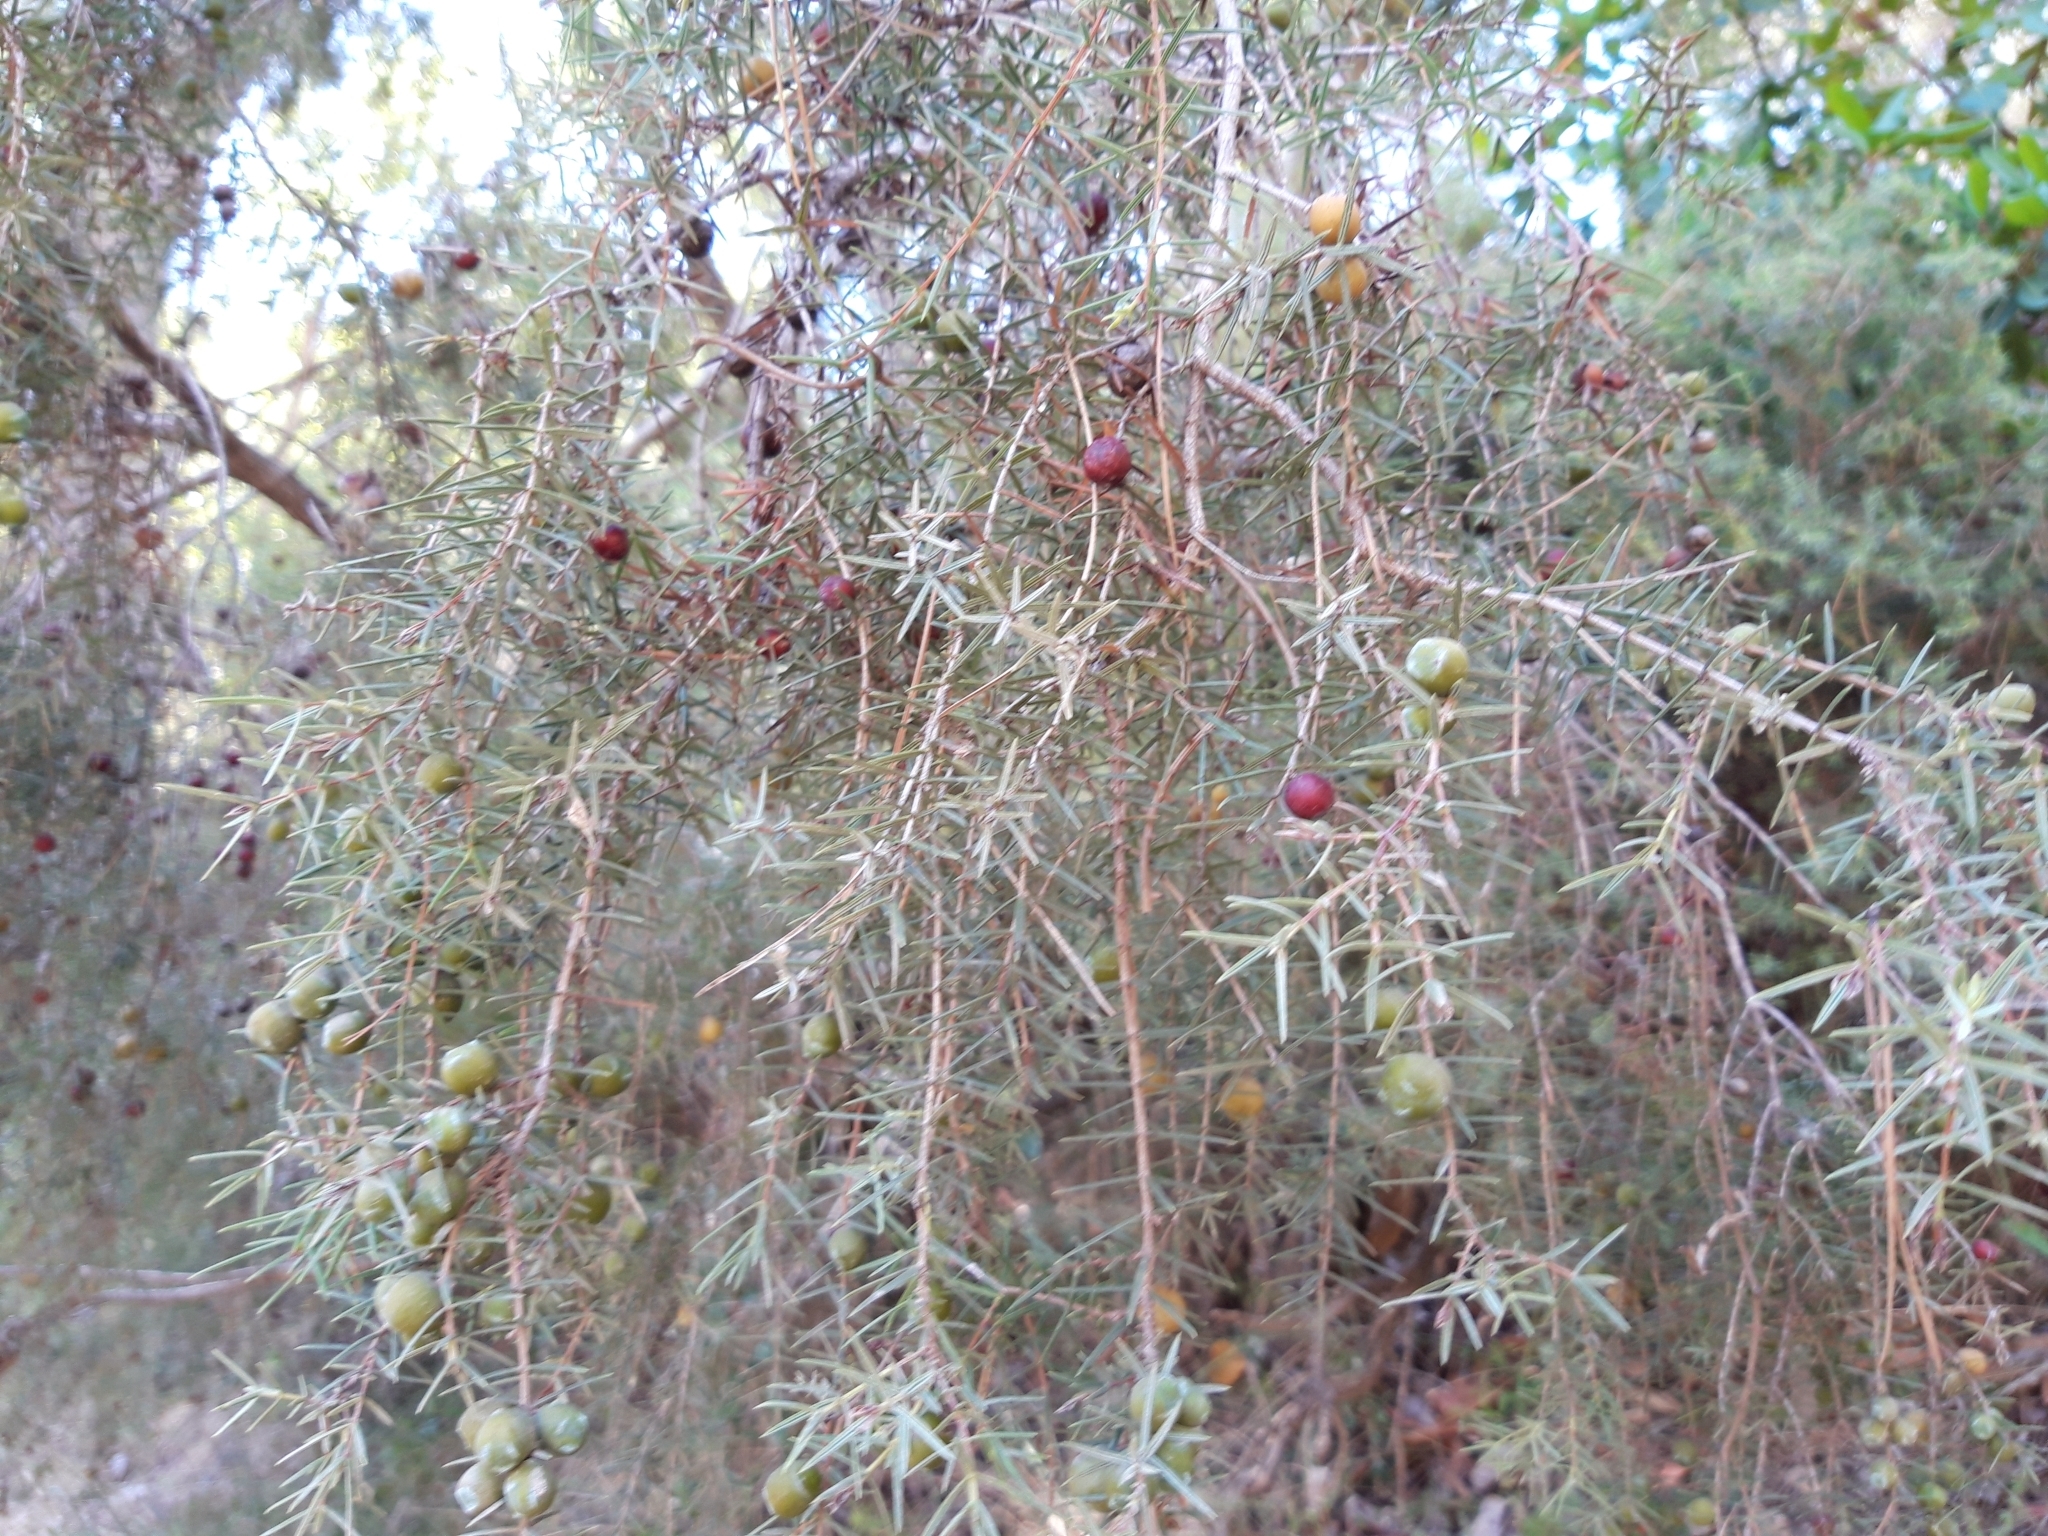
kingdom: Plantae
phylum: Tracheophyta
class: Pinopsida
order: Pinales
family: Cupressaceae
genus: Juniperus
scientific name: Juniperus oxycedrus
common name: Prickly juniper
